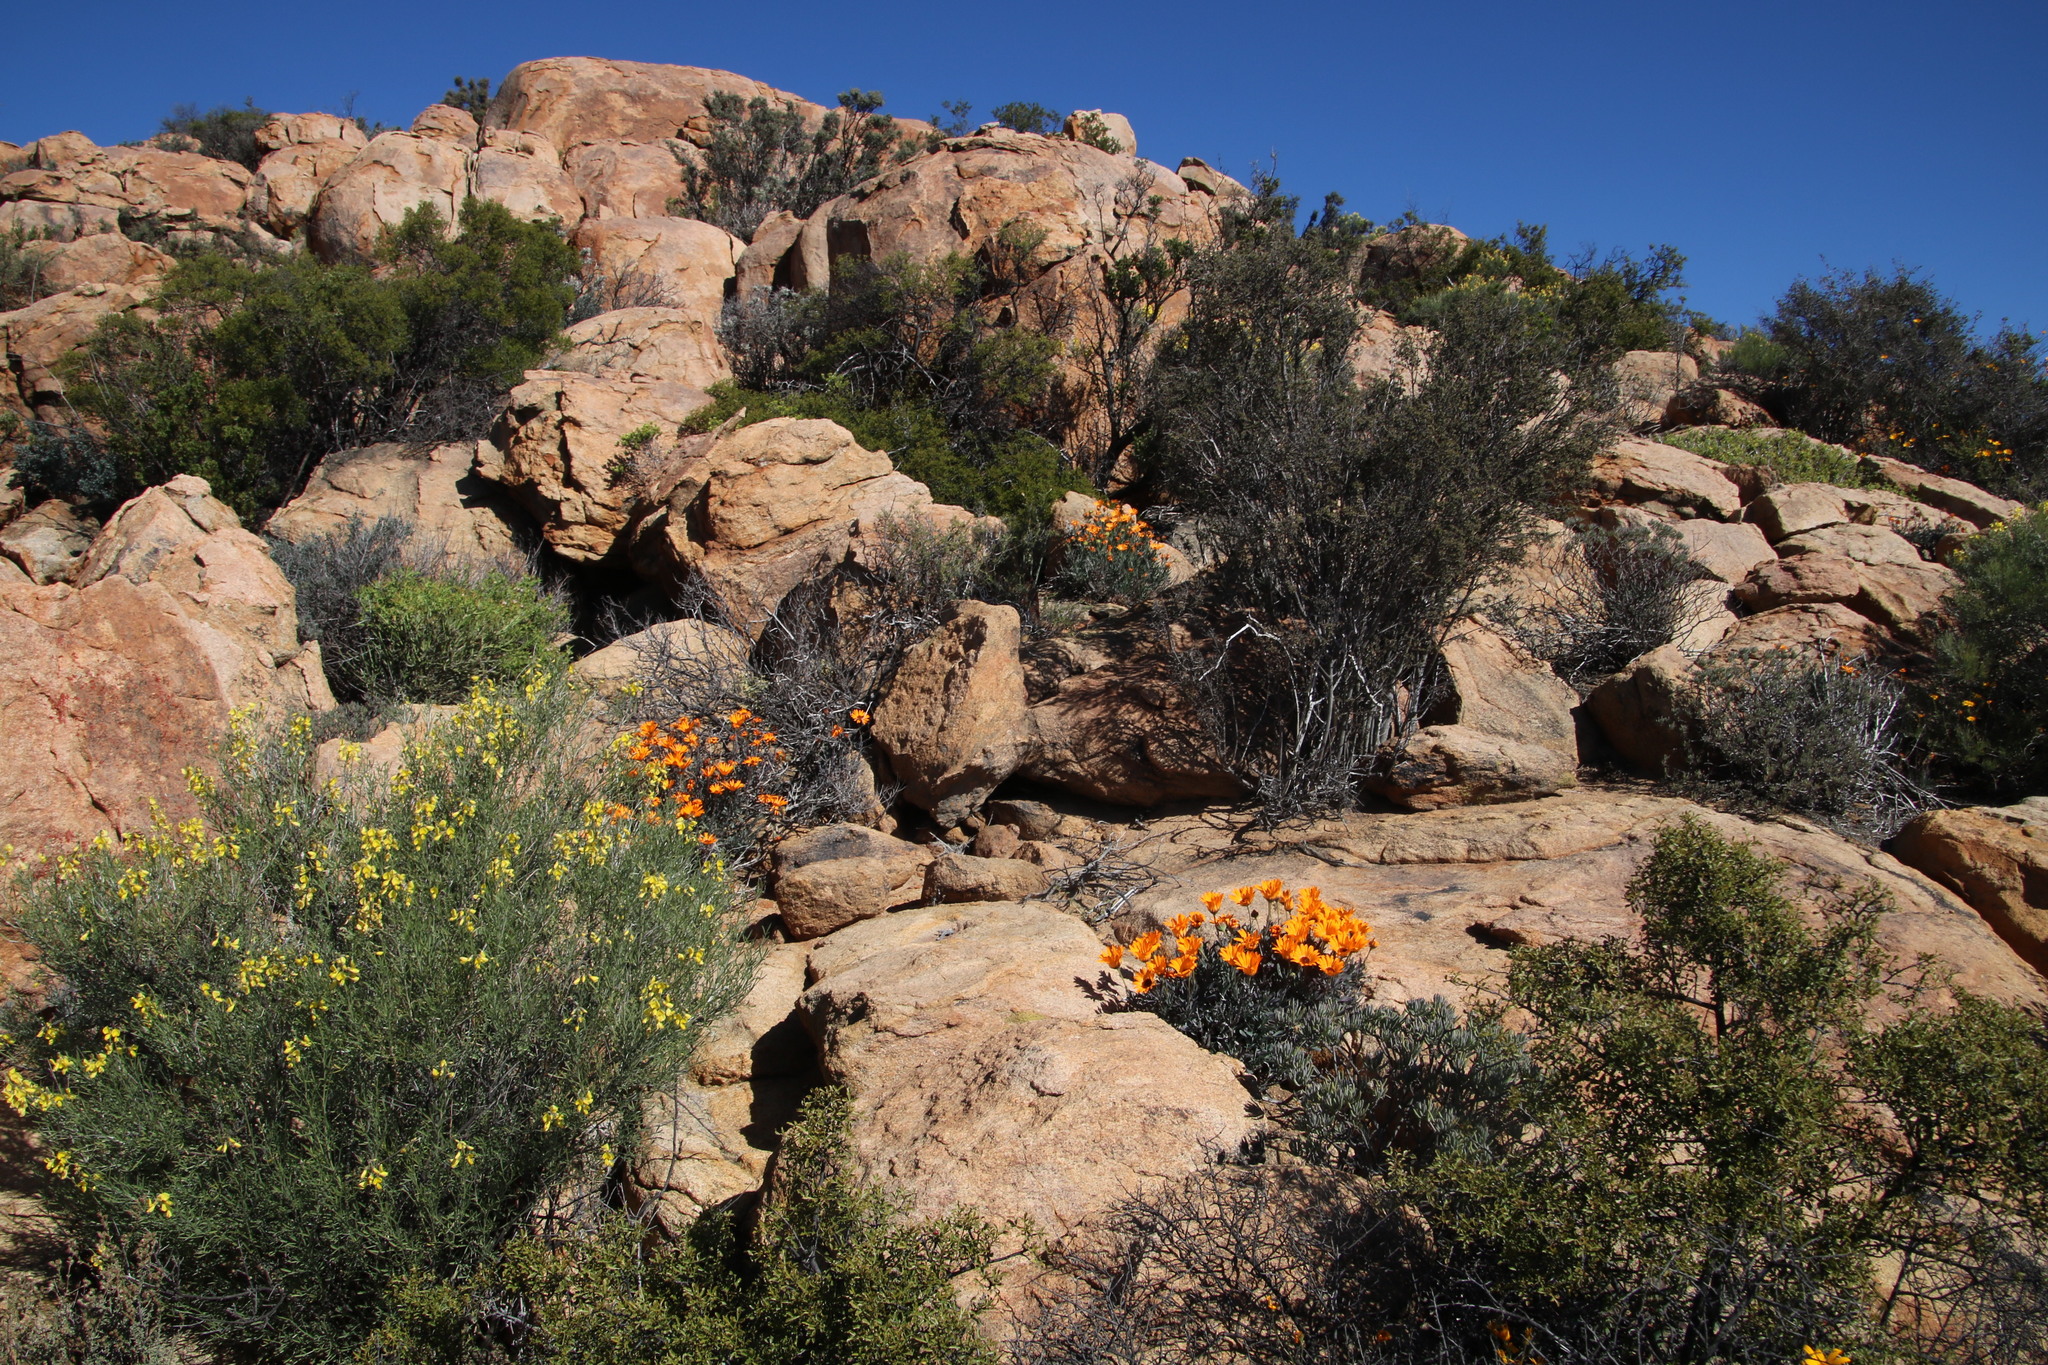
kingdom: Plantae
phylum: Tracheophyta
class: Magnoliopsida
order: Asterales
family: Asteraceae
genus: Dimorphotheca
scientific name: Dimorphotheca tragus
